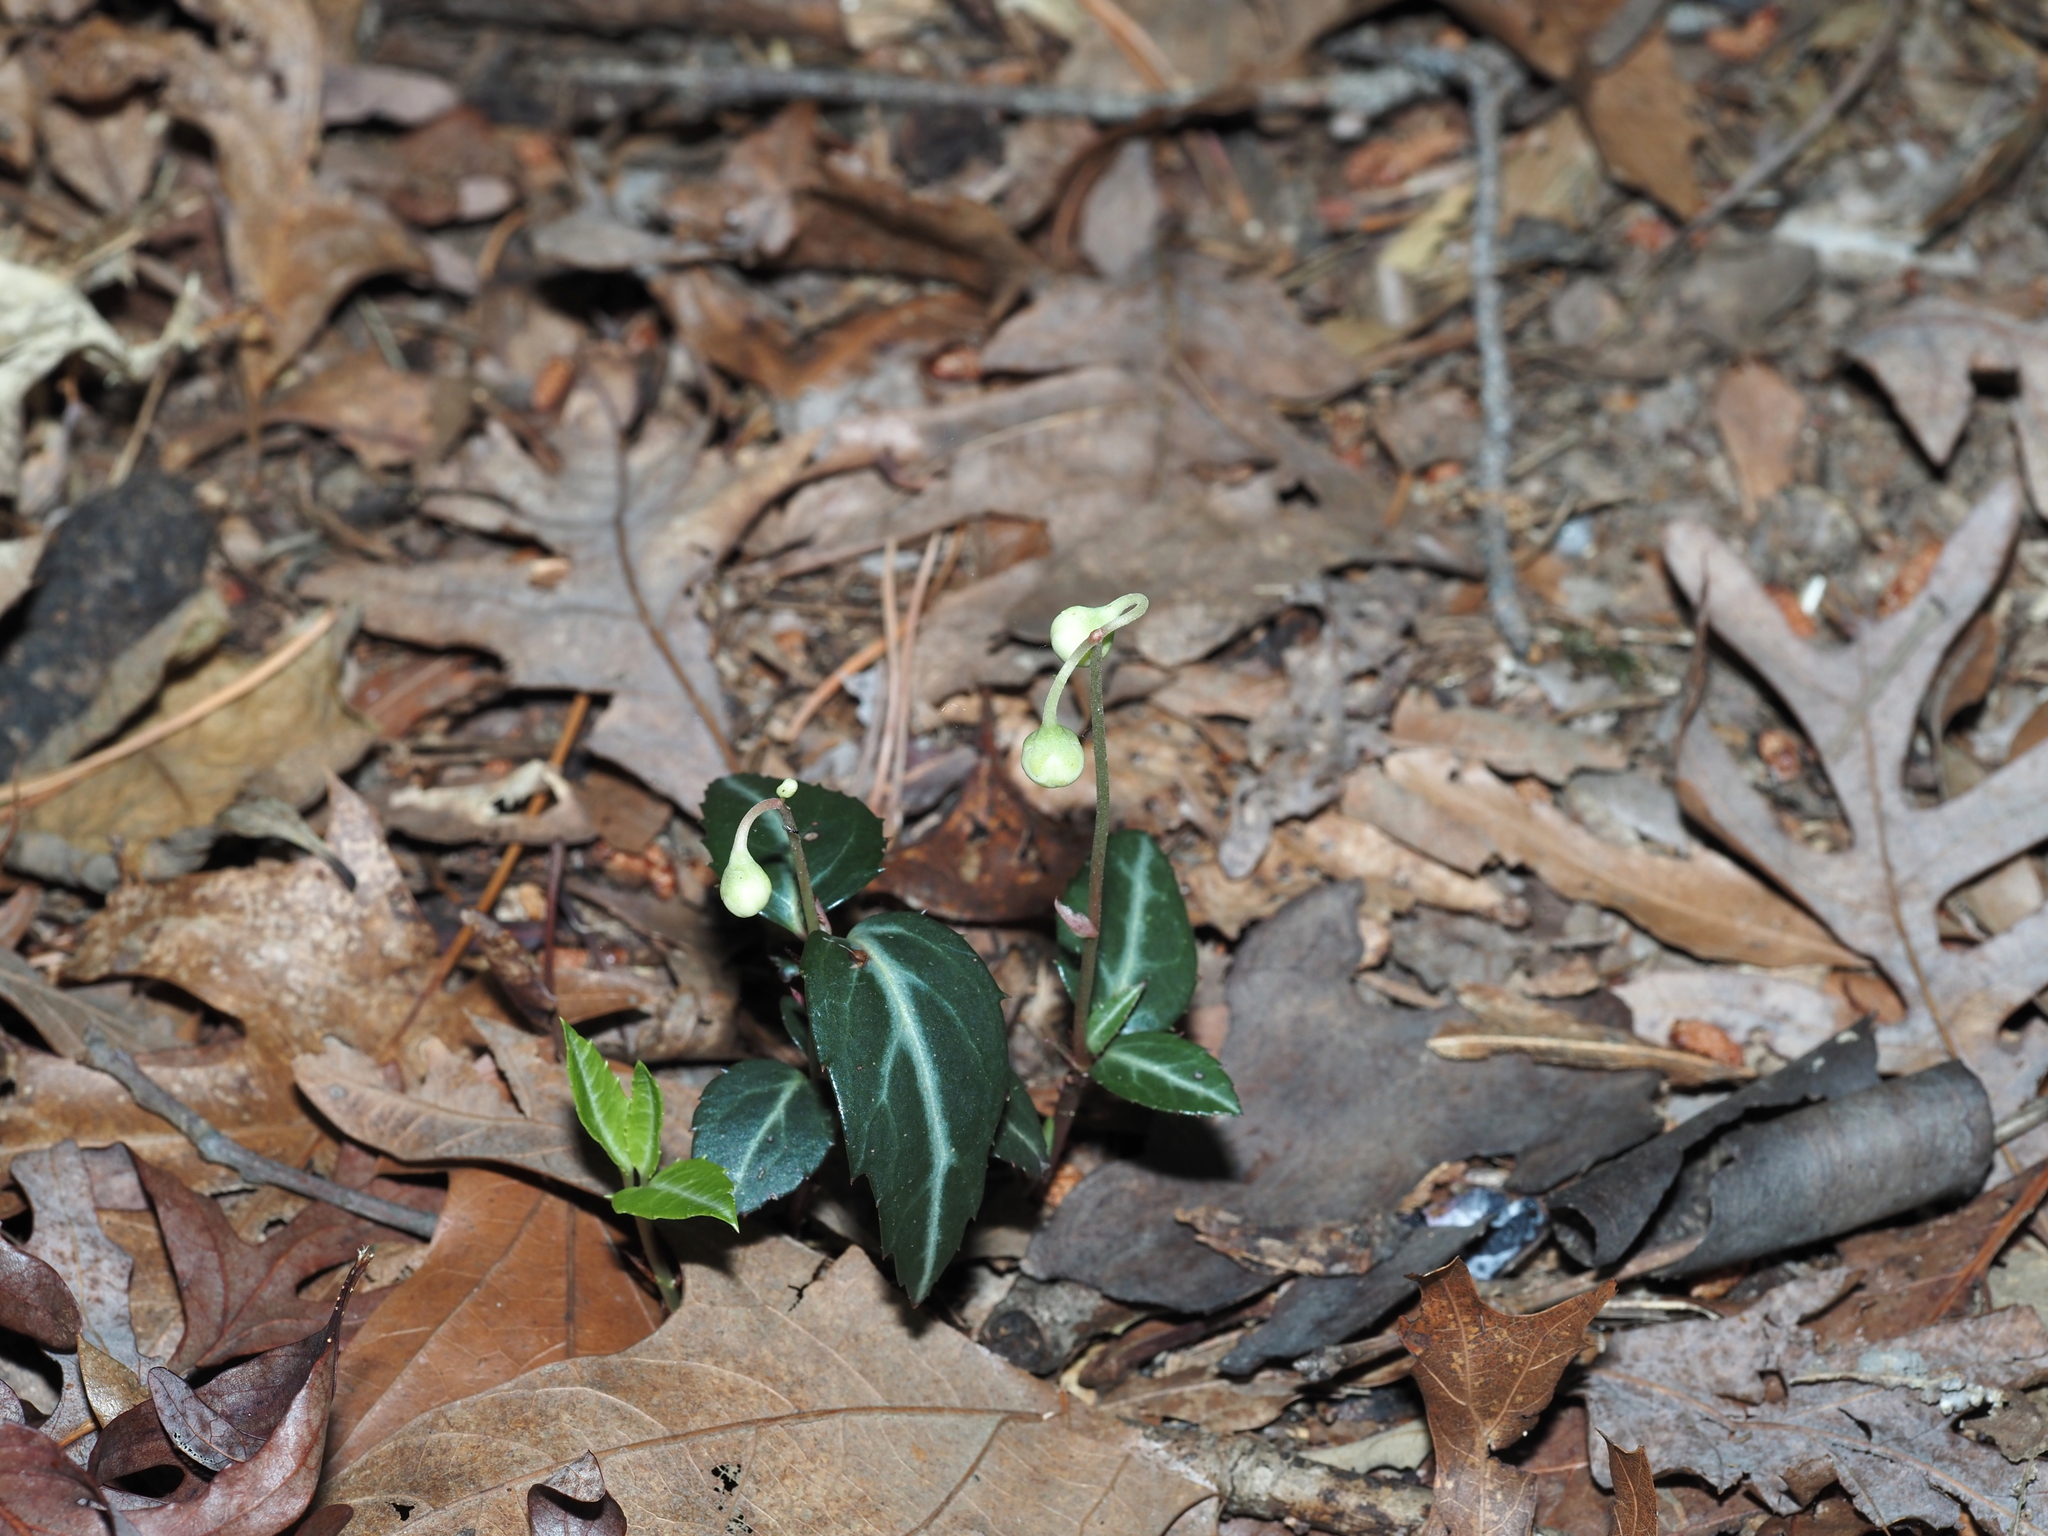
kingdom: Plantae
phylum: Tracheophyta
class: Magnoliopsida
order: Ericales
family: Ericaceae
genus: Chimaphila
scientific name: Chimaphila maculata
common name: Spotted pipsissewa
